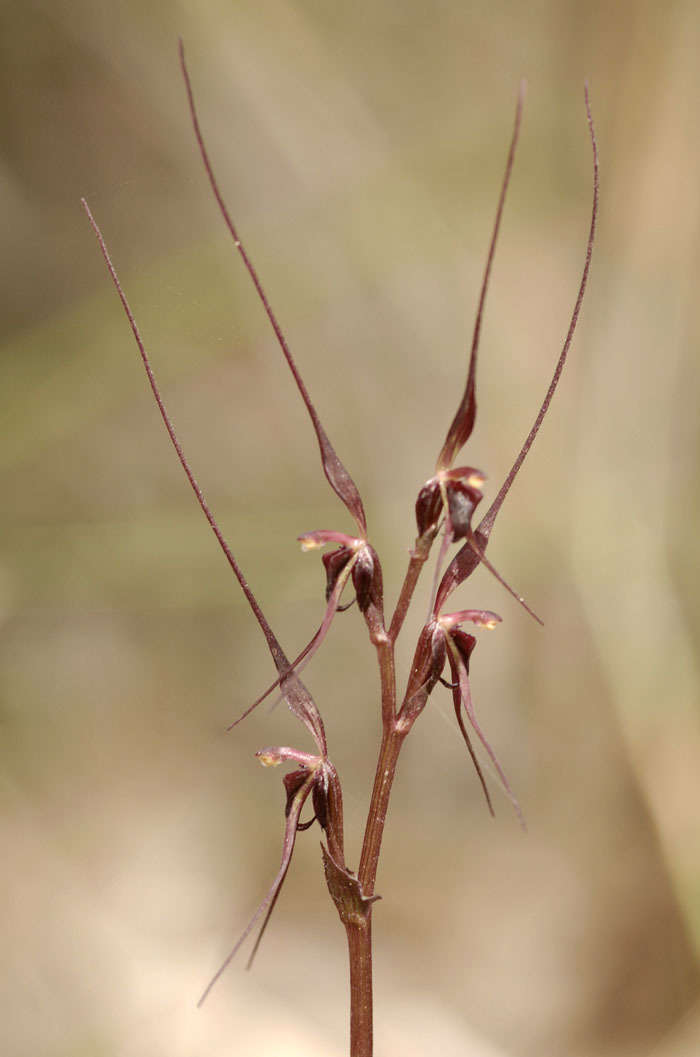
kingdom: Plantae
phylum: Tracheophyta
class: Liliopsida
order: Asparagales
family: Orchidaceae
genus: Acianthus
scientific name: Acianthus caudatus
